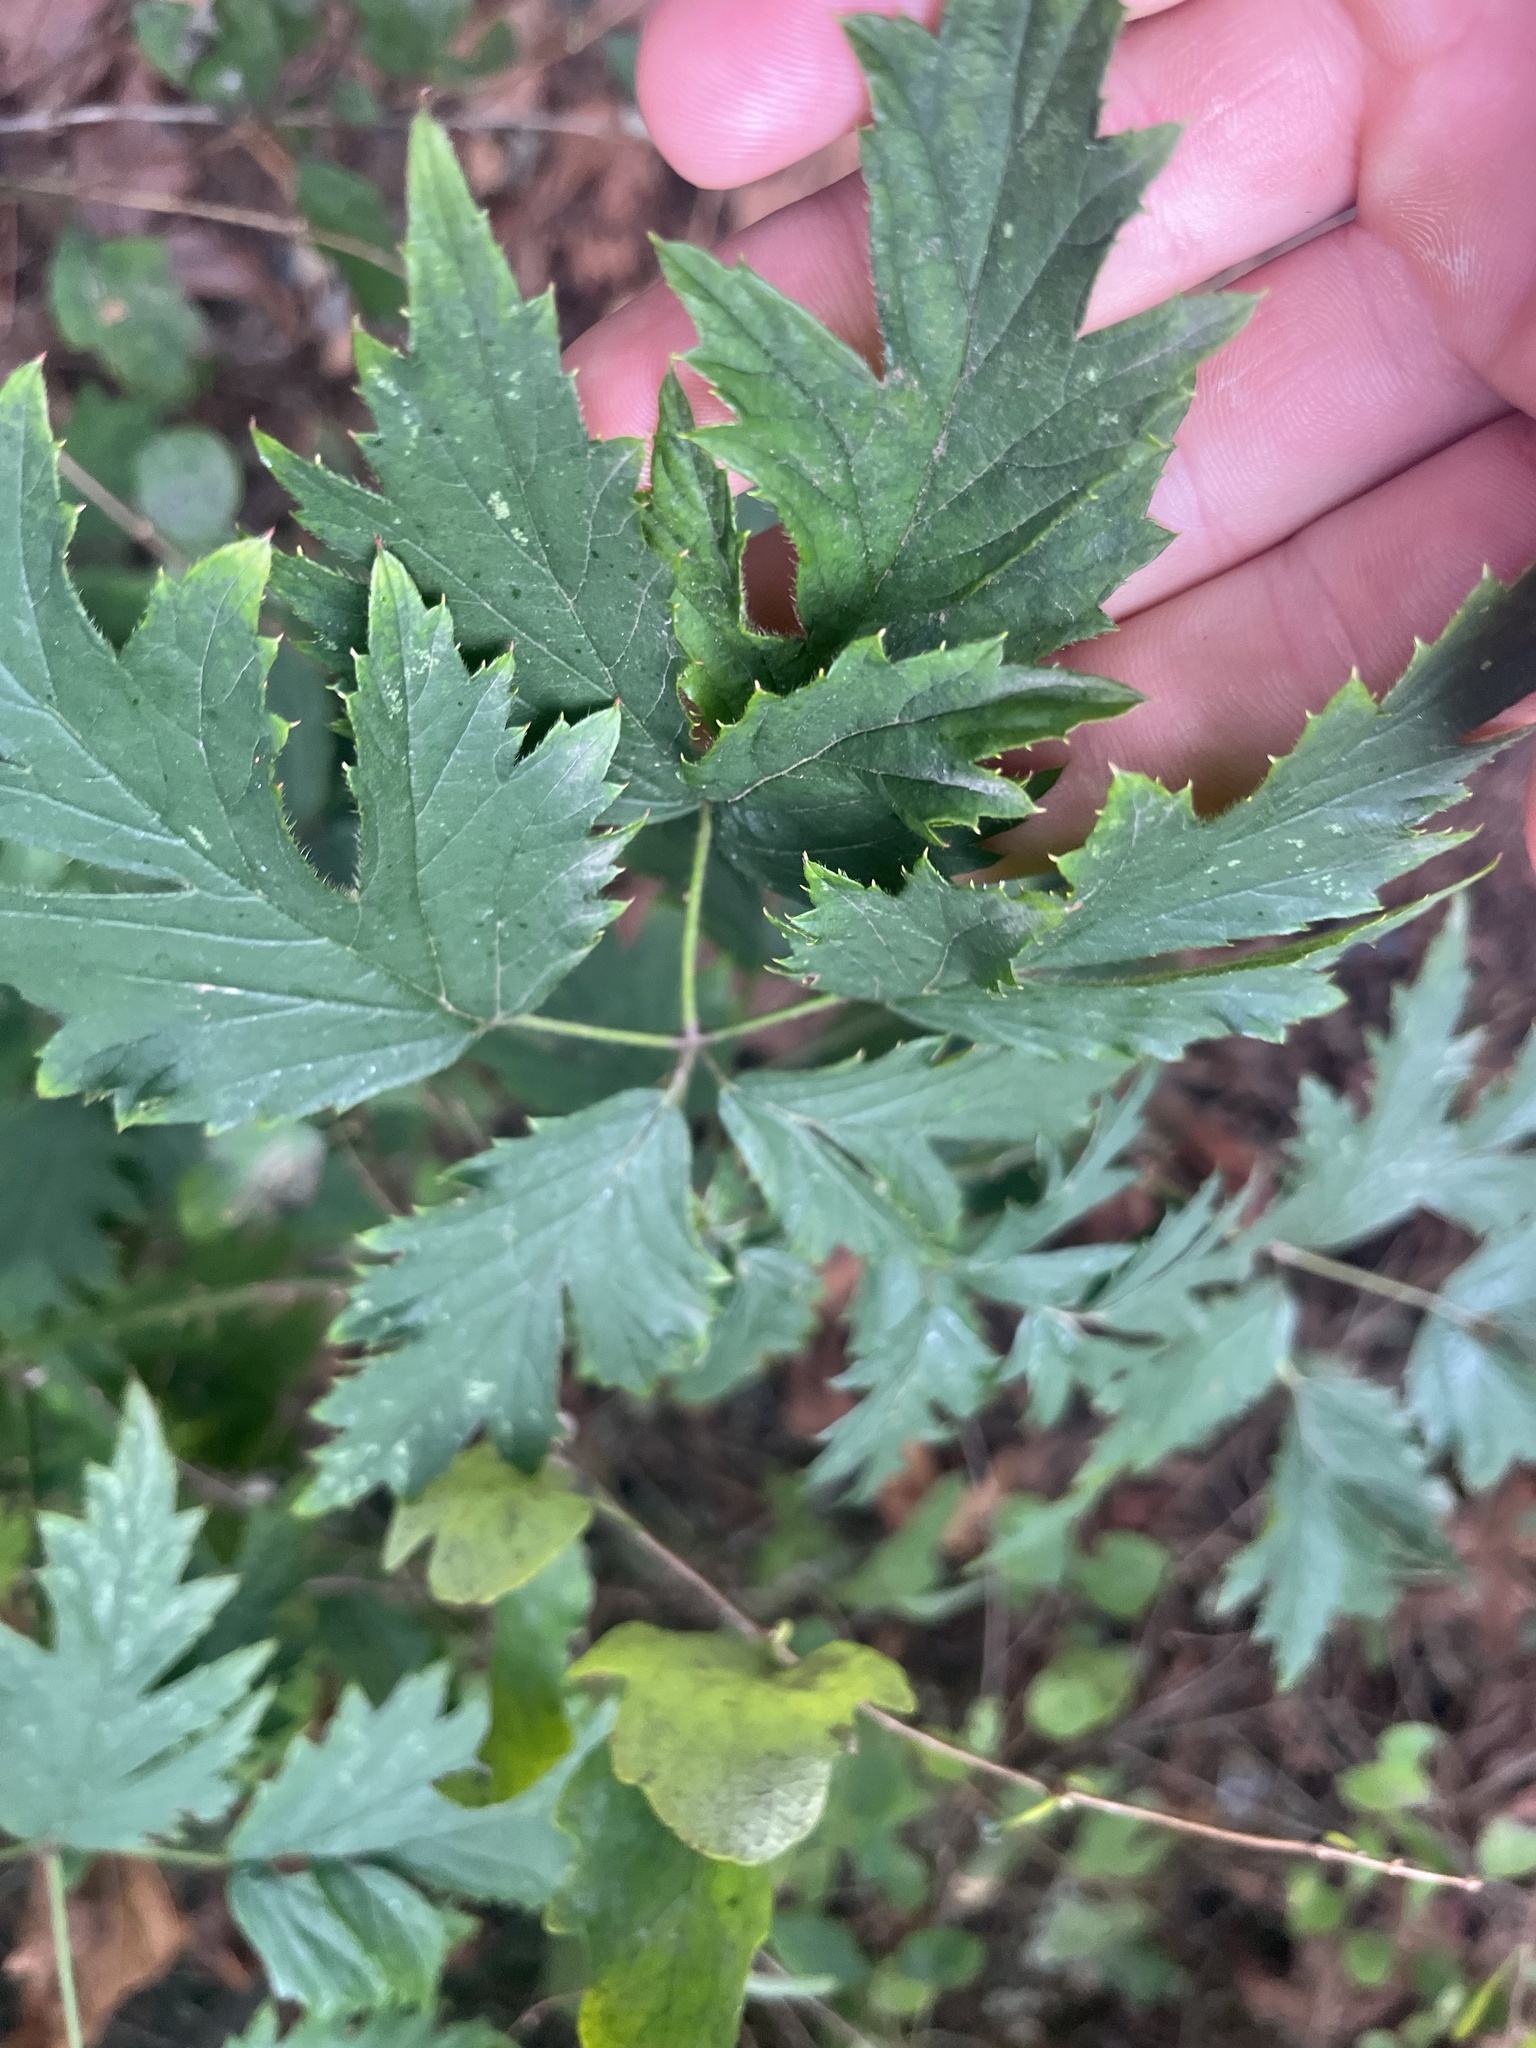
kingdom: Plantae
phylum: Tracheophyta
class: Magnoliopsida
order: Rosales
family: Rosaceae
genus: Rubus
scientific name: Rubus laciniatus
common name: Evergreen blackberry
